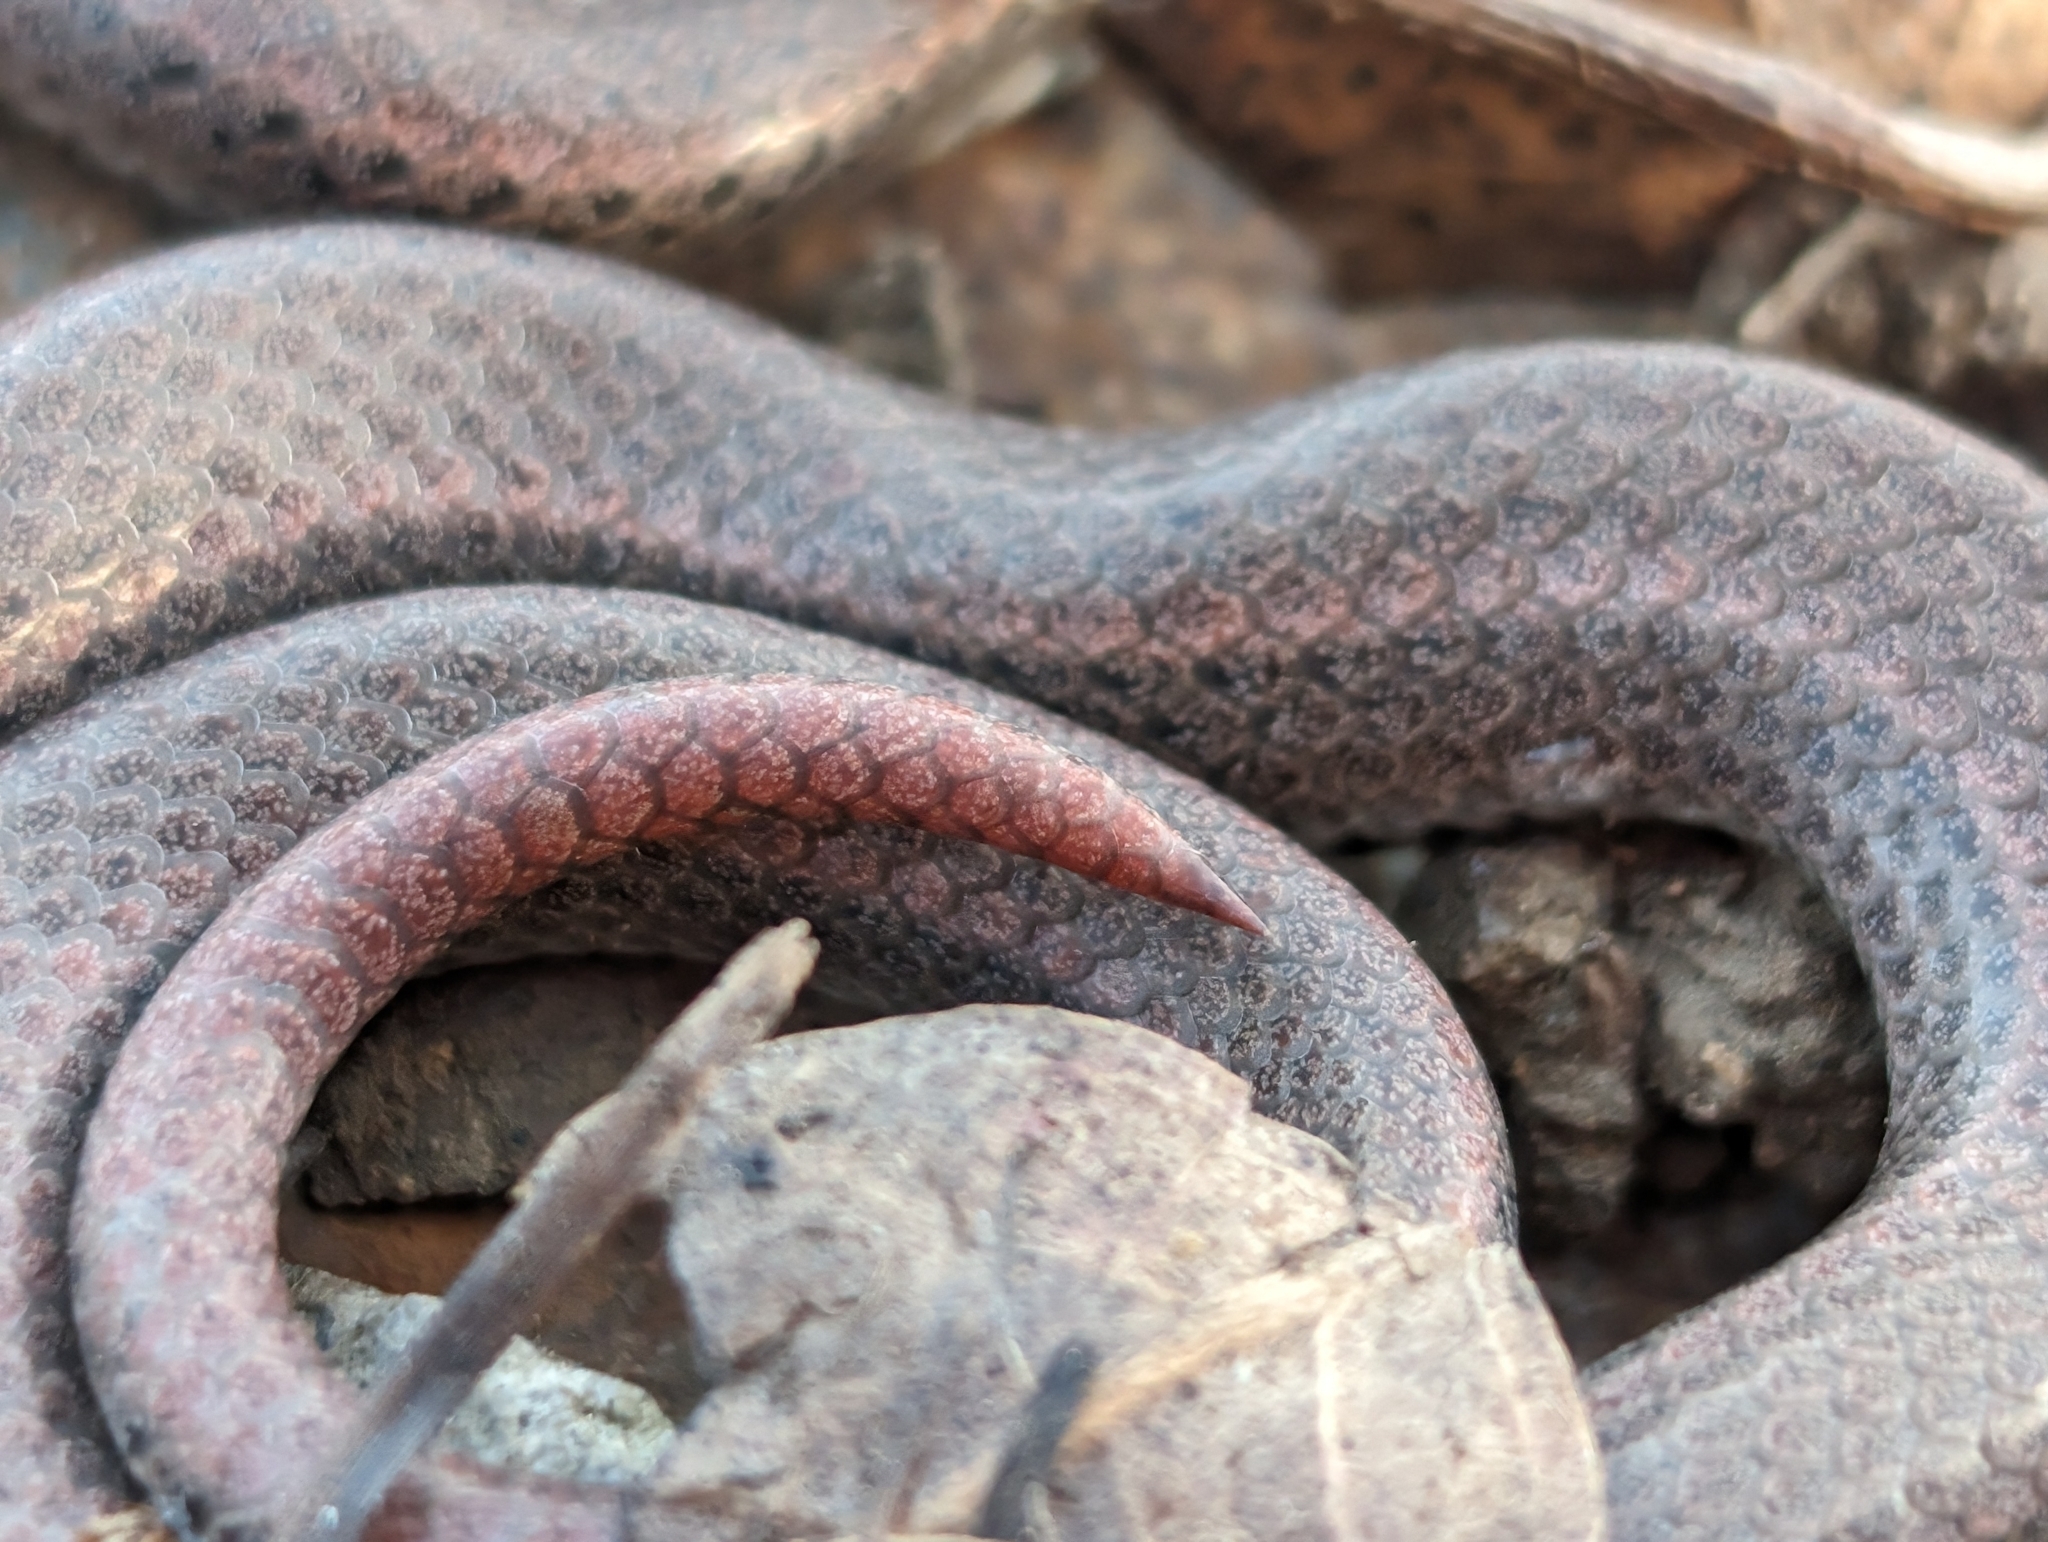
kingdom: Animalia
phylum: Chordata
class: Squamata
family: Colubridae
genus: Contia
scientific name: Contia tenuis
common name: Sharptail snake
